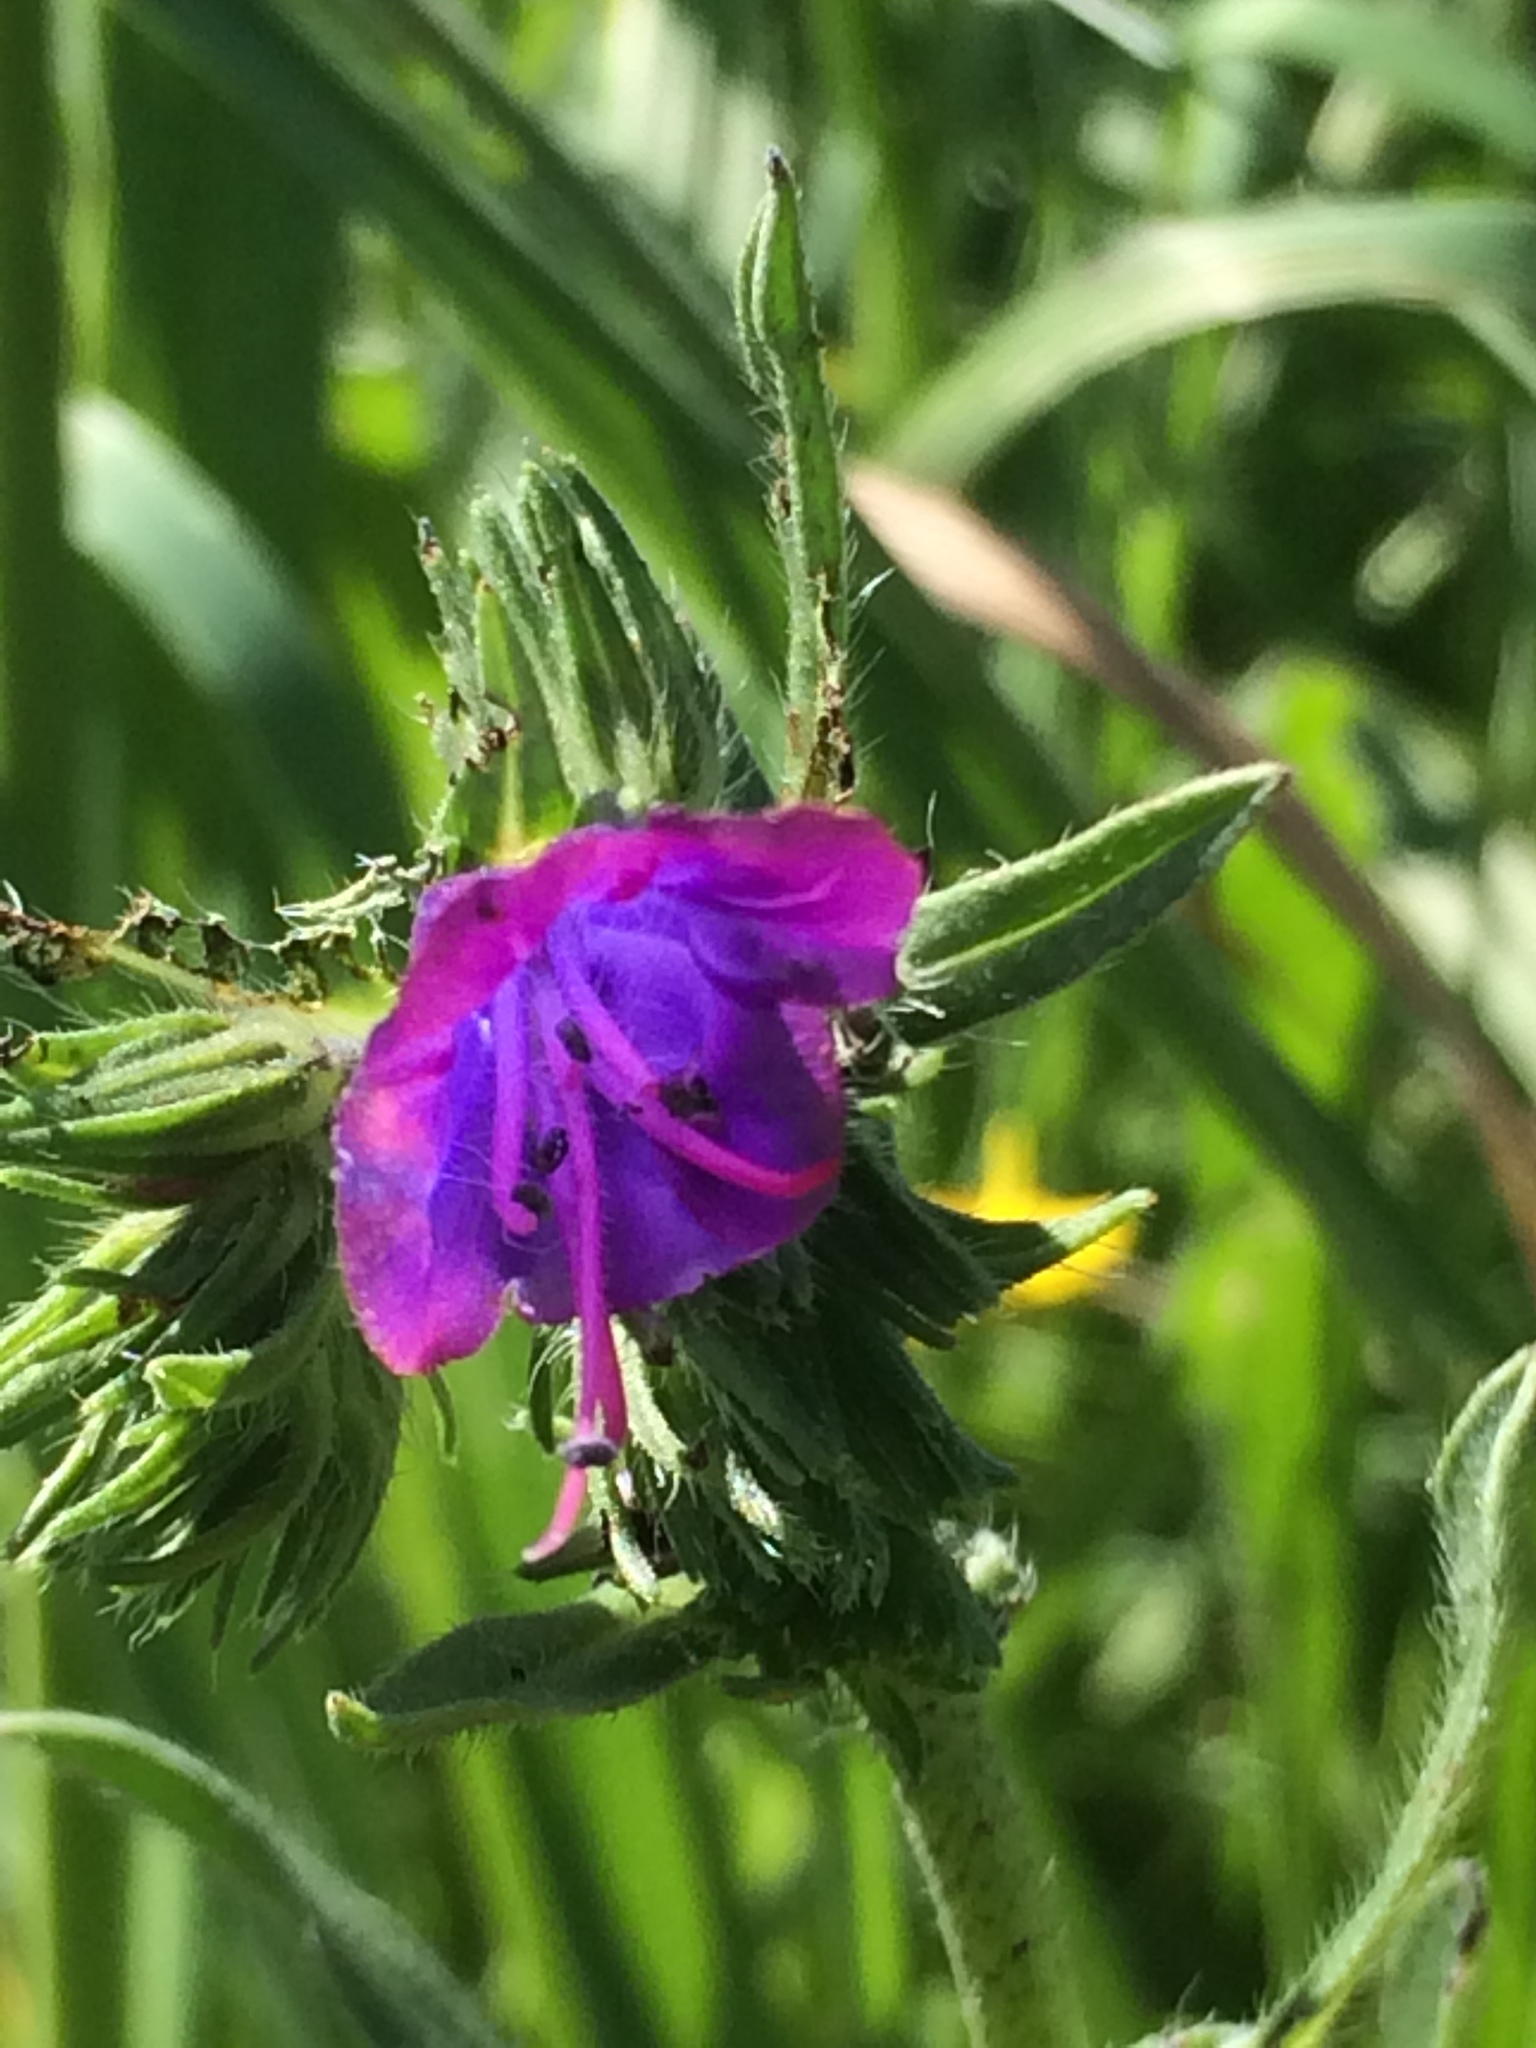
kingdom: Plantae
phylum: Tracheophyta
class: Magnoliopsida
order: Boraginales
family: Boraginaceae
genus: Echium
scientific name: Echium plantagineum
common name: Purple viper's-bugloss
